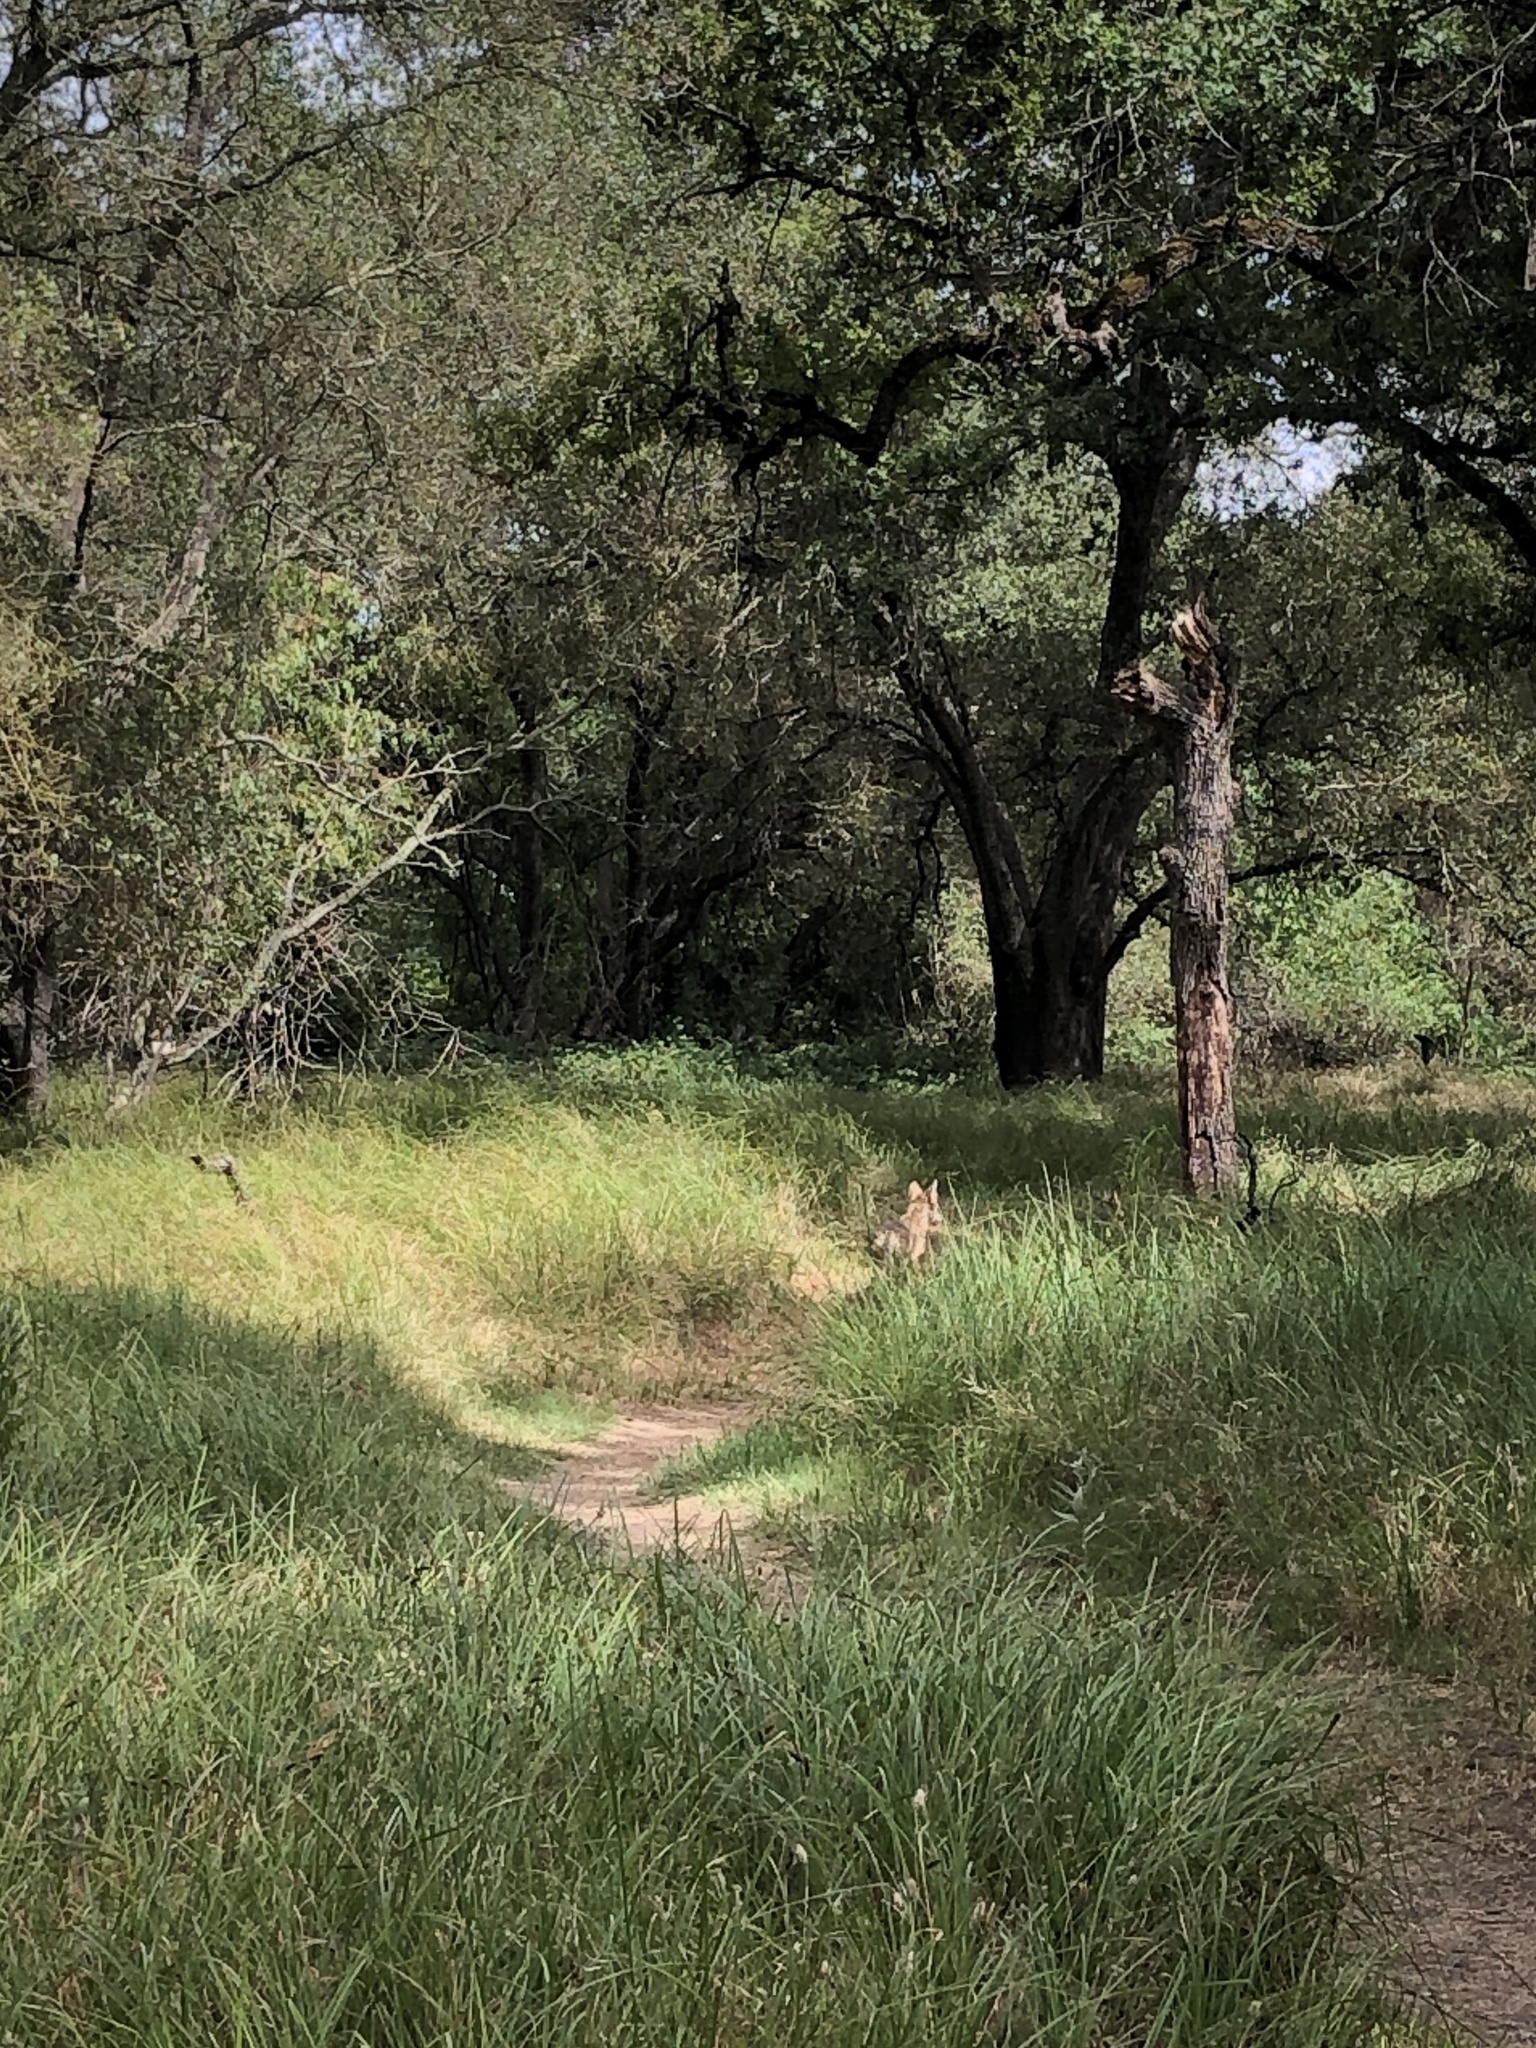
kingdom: Animalia
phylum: Chordata
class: Mammalia
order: Carnivora
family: Canidae
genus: Canis
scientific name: Canis latrans
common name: Coyote
